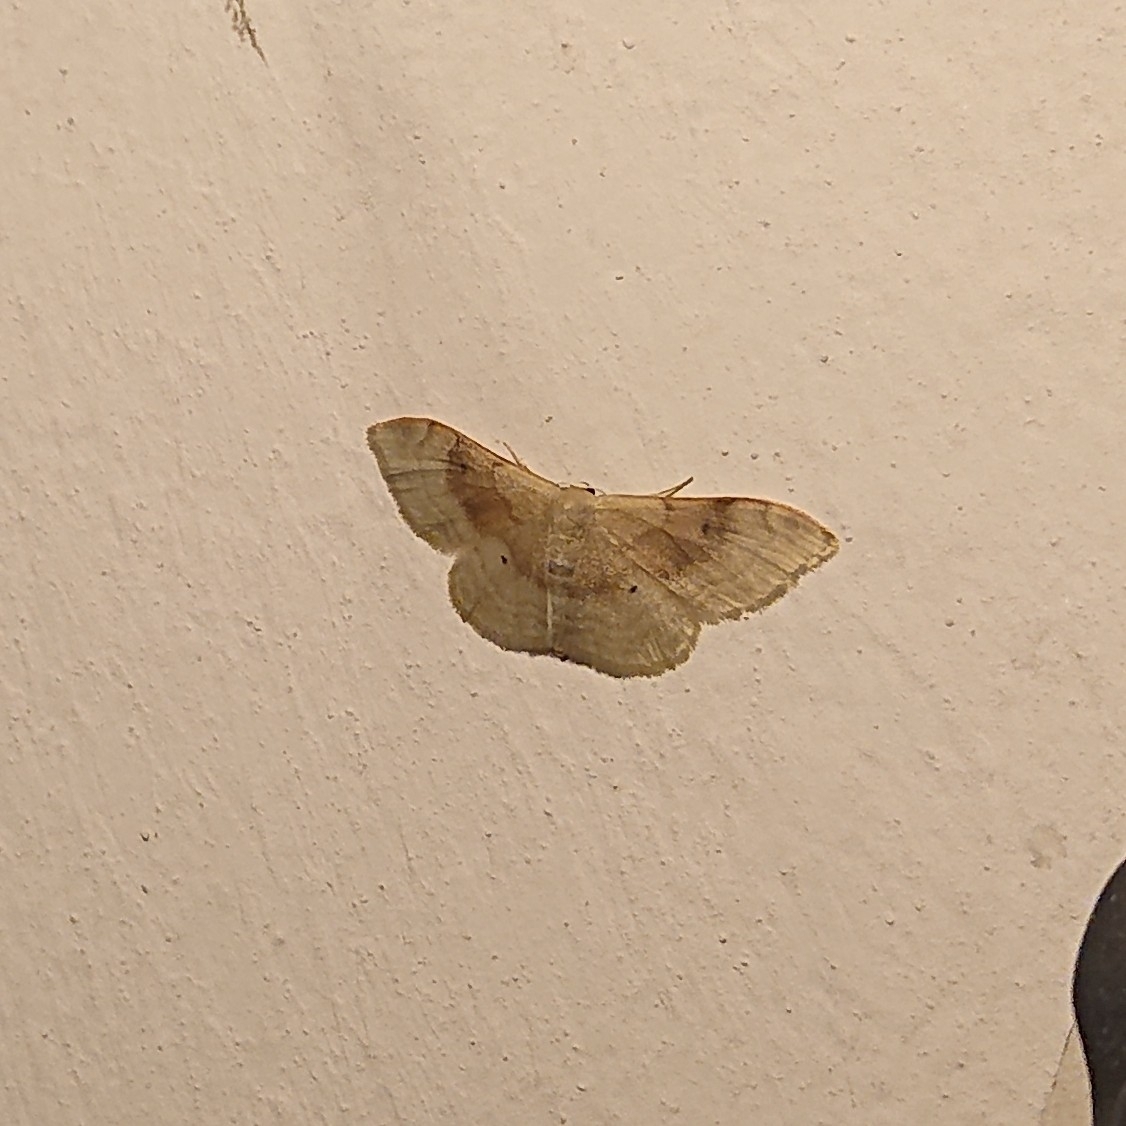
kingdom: Animalia
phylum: Arthropoda
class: Insecta
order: Lepidoptera
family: Geometridae
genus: Idaea
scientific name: Idaea degeneraria
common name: Portland ribbon wave
